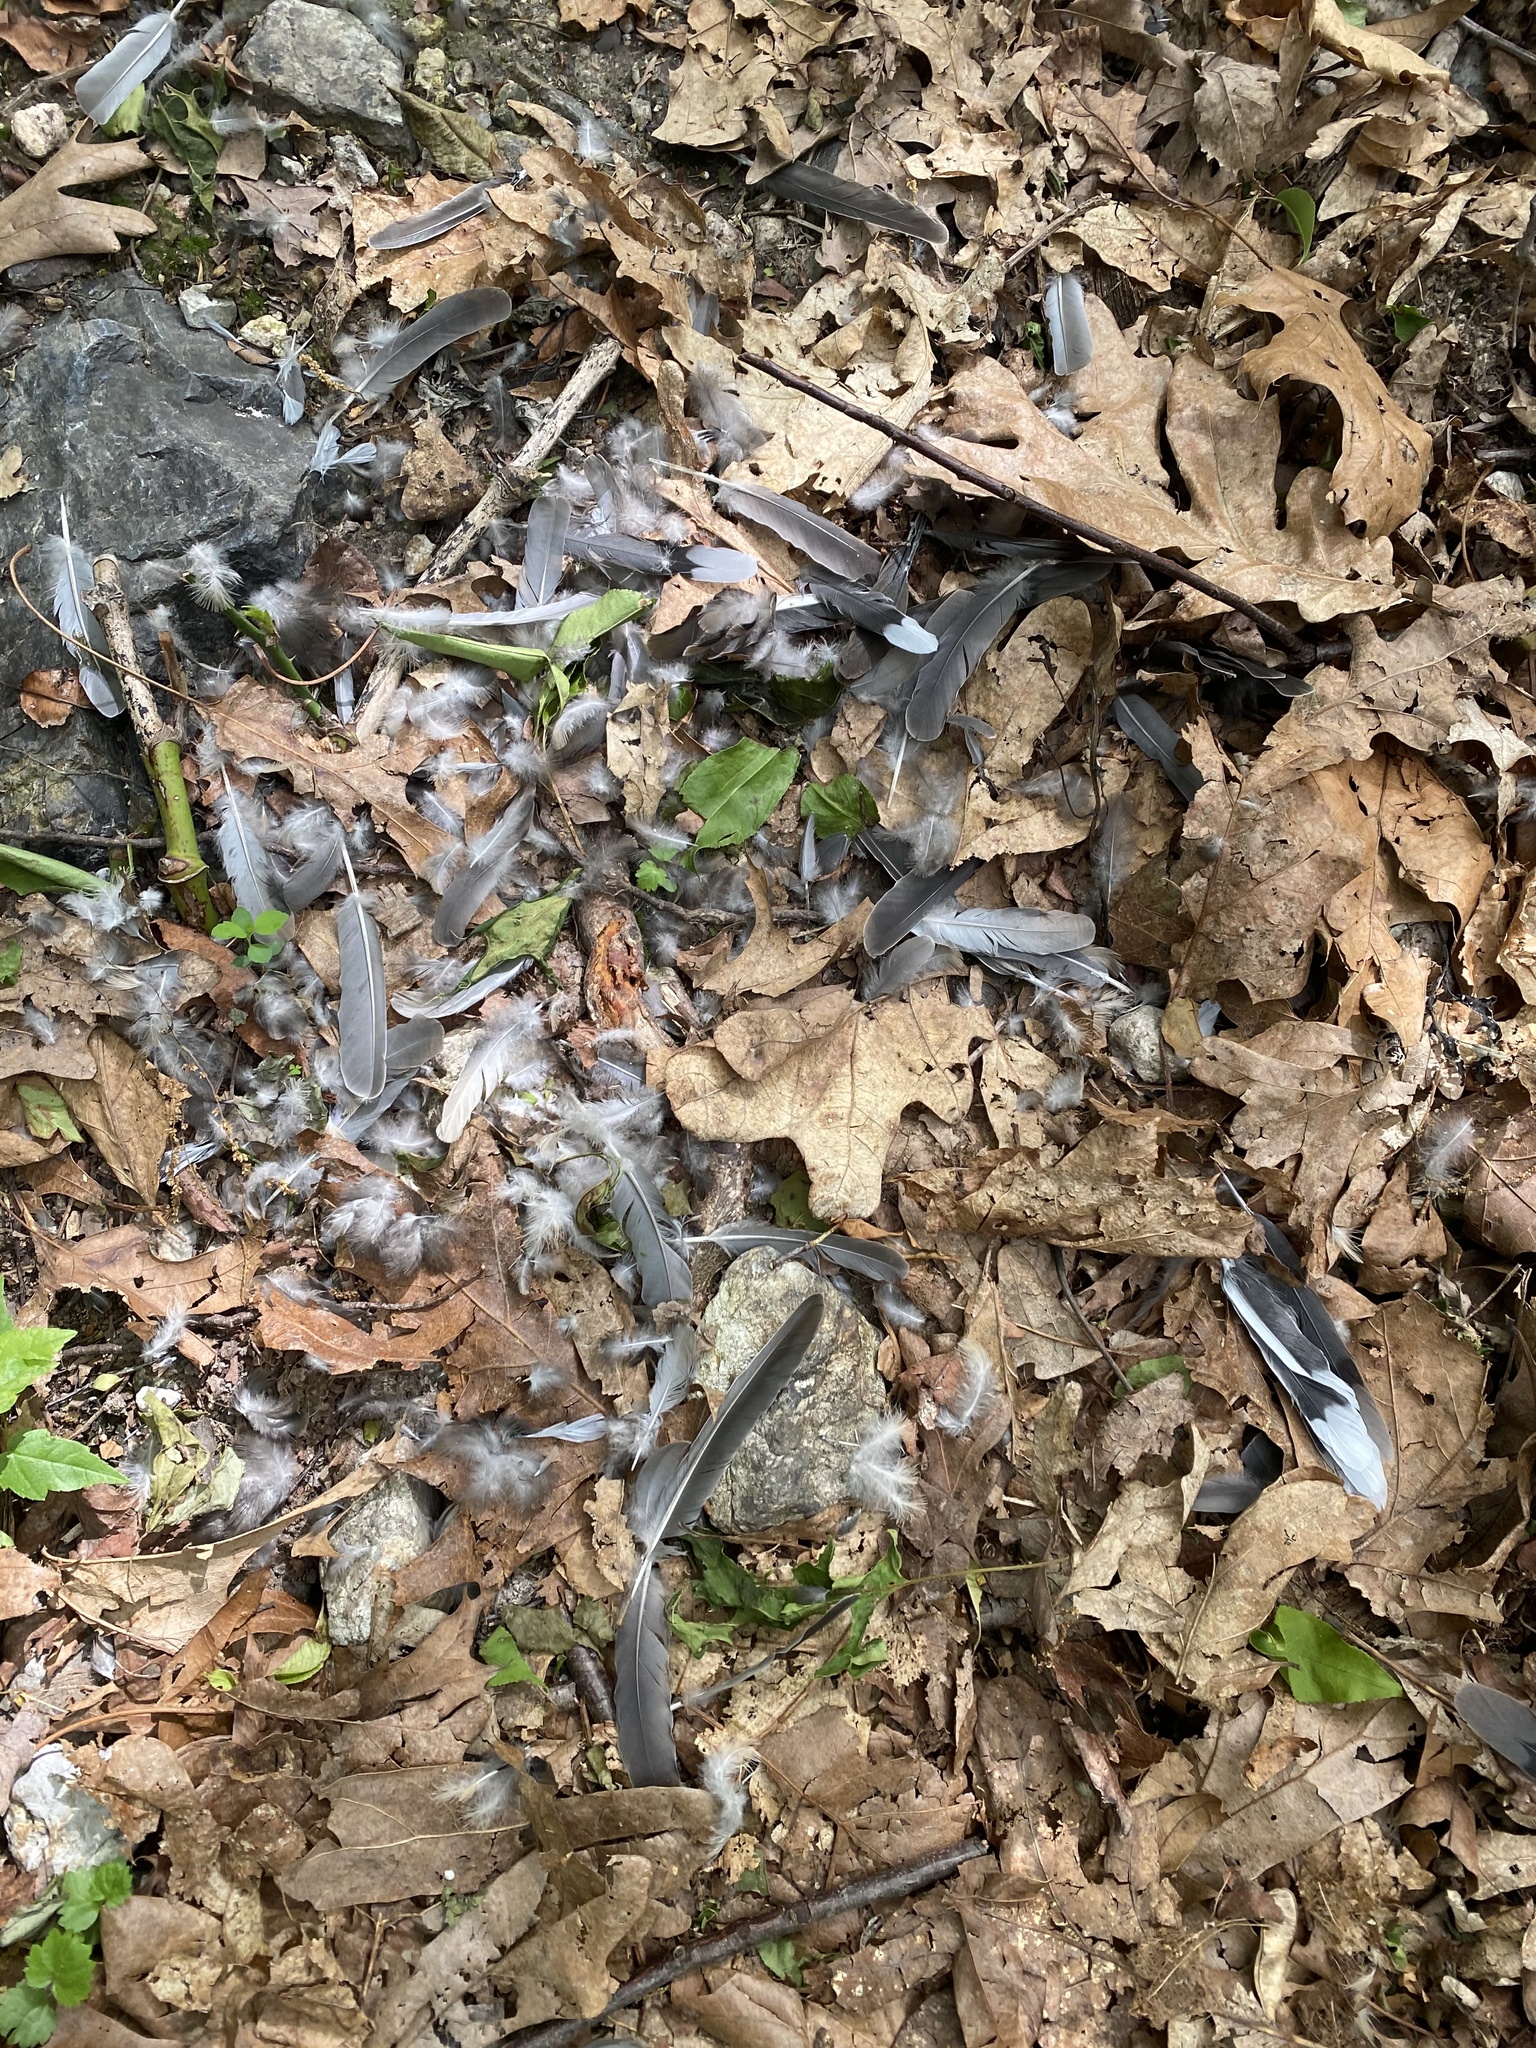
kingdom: Animalia
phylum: Chordata
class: Aves
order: Columbiformes
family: Columbidae
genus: Zenaida
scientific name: Zenaida macroura
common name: Mourning dove
